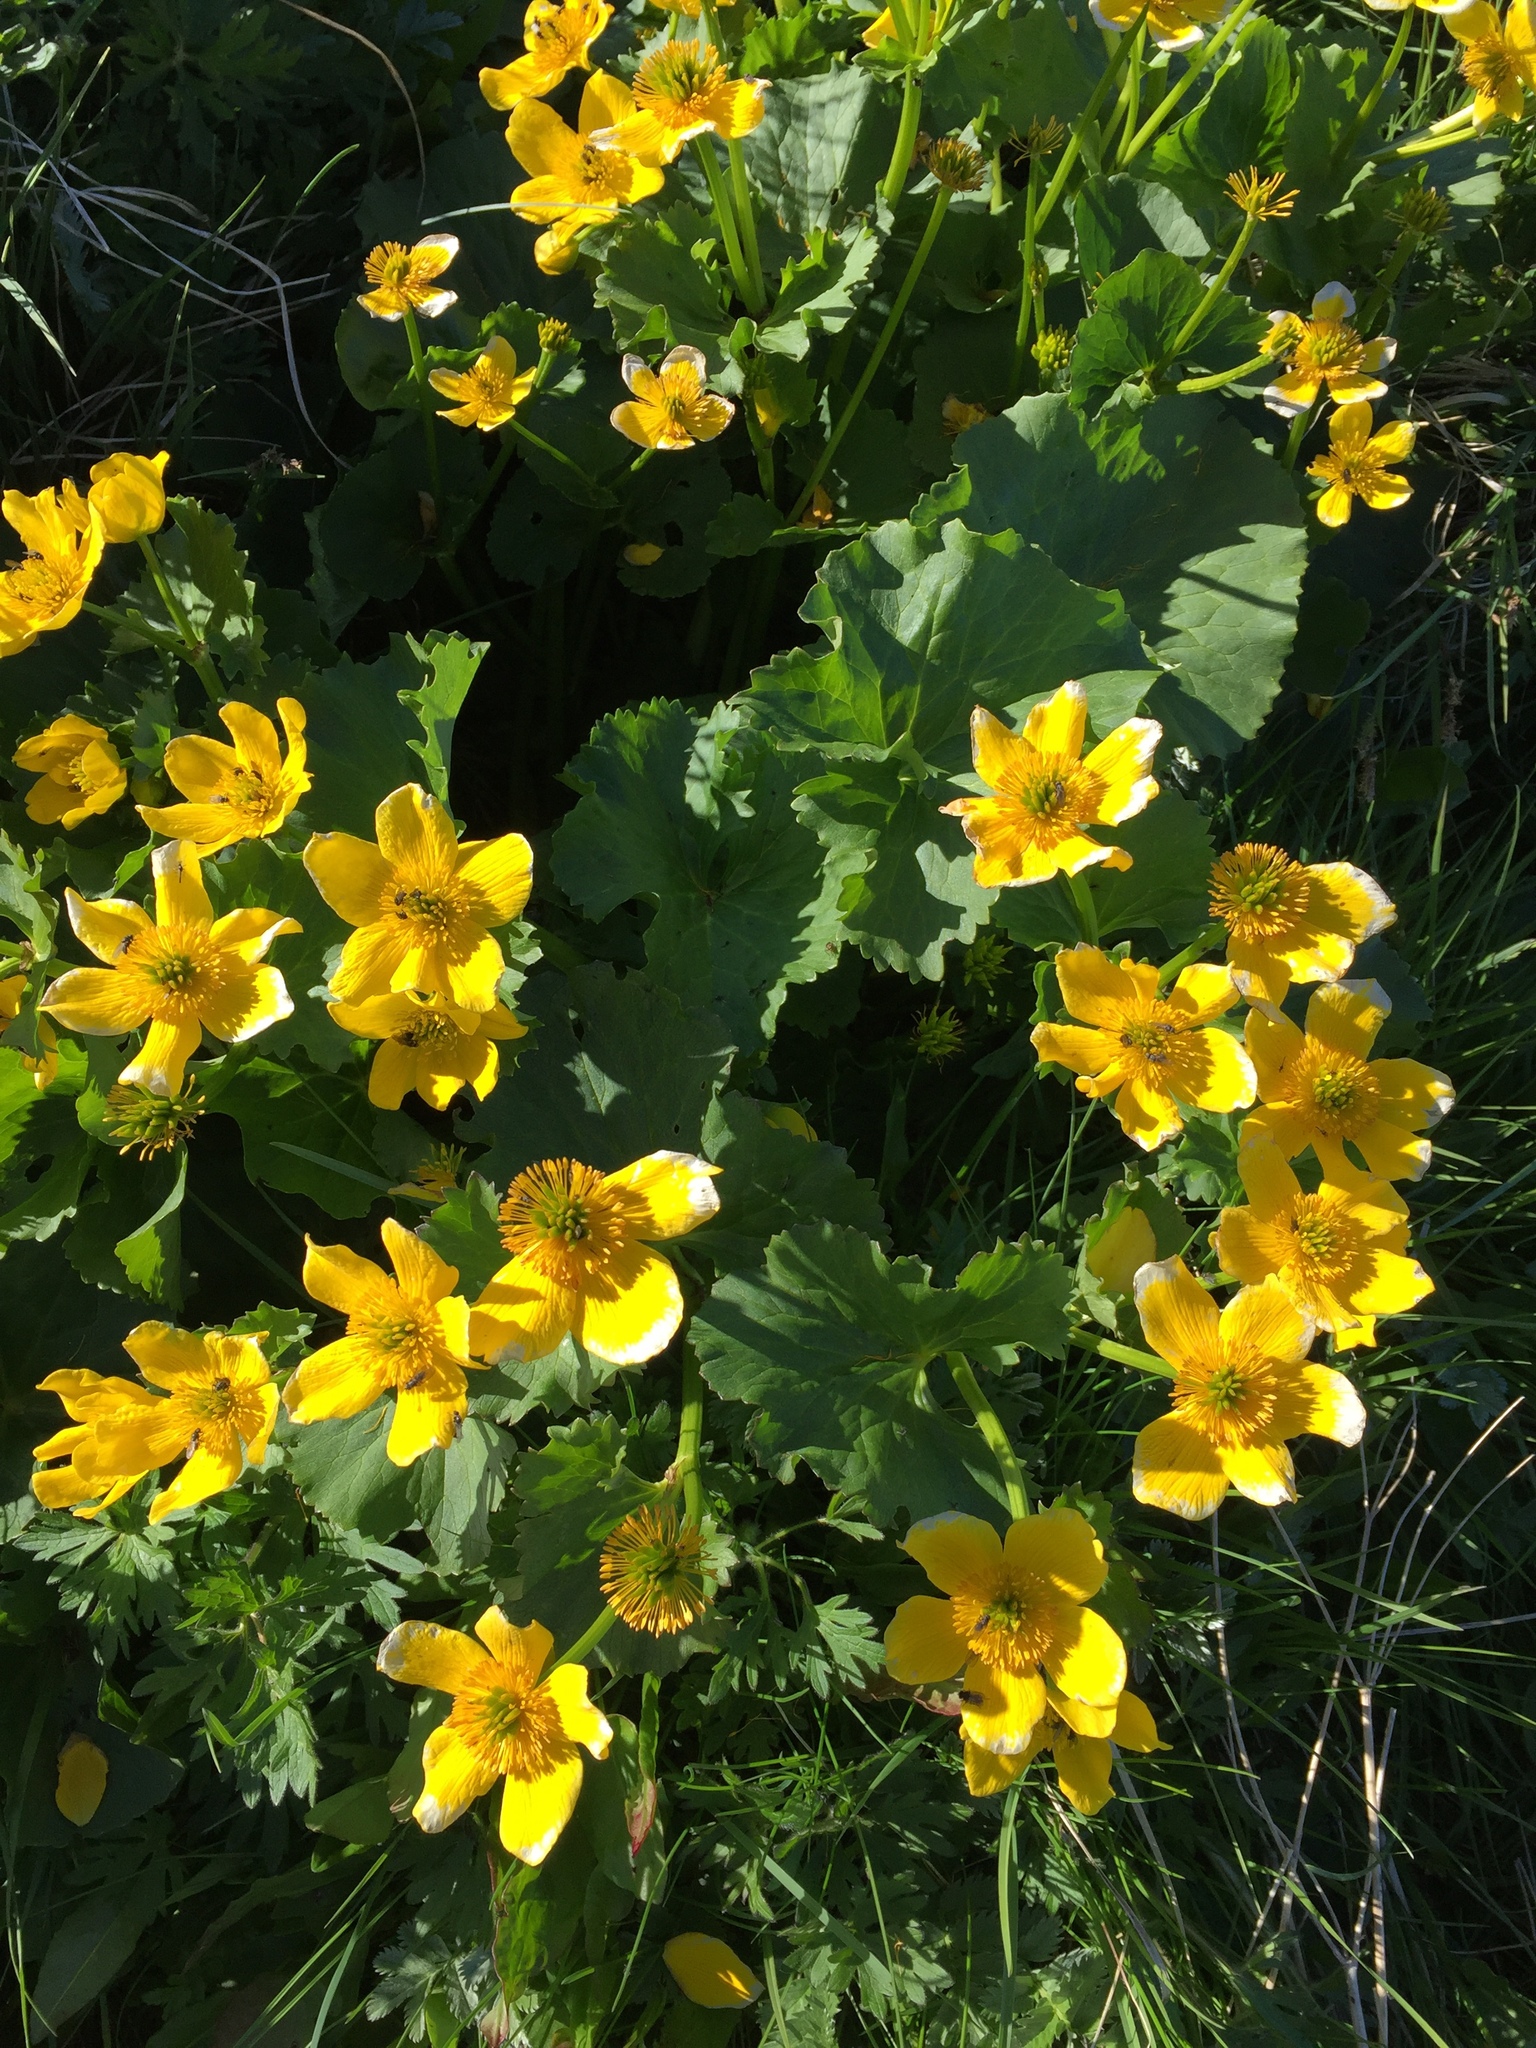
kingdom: Plantae
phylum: Tracheophyta
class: Magnoliopsida
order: Ranunculales
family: Ranunculaceae
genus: Caltha
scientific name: Caltha palustris
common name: Marsh marigold
